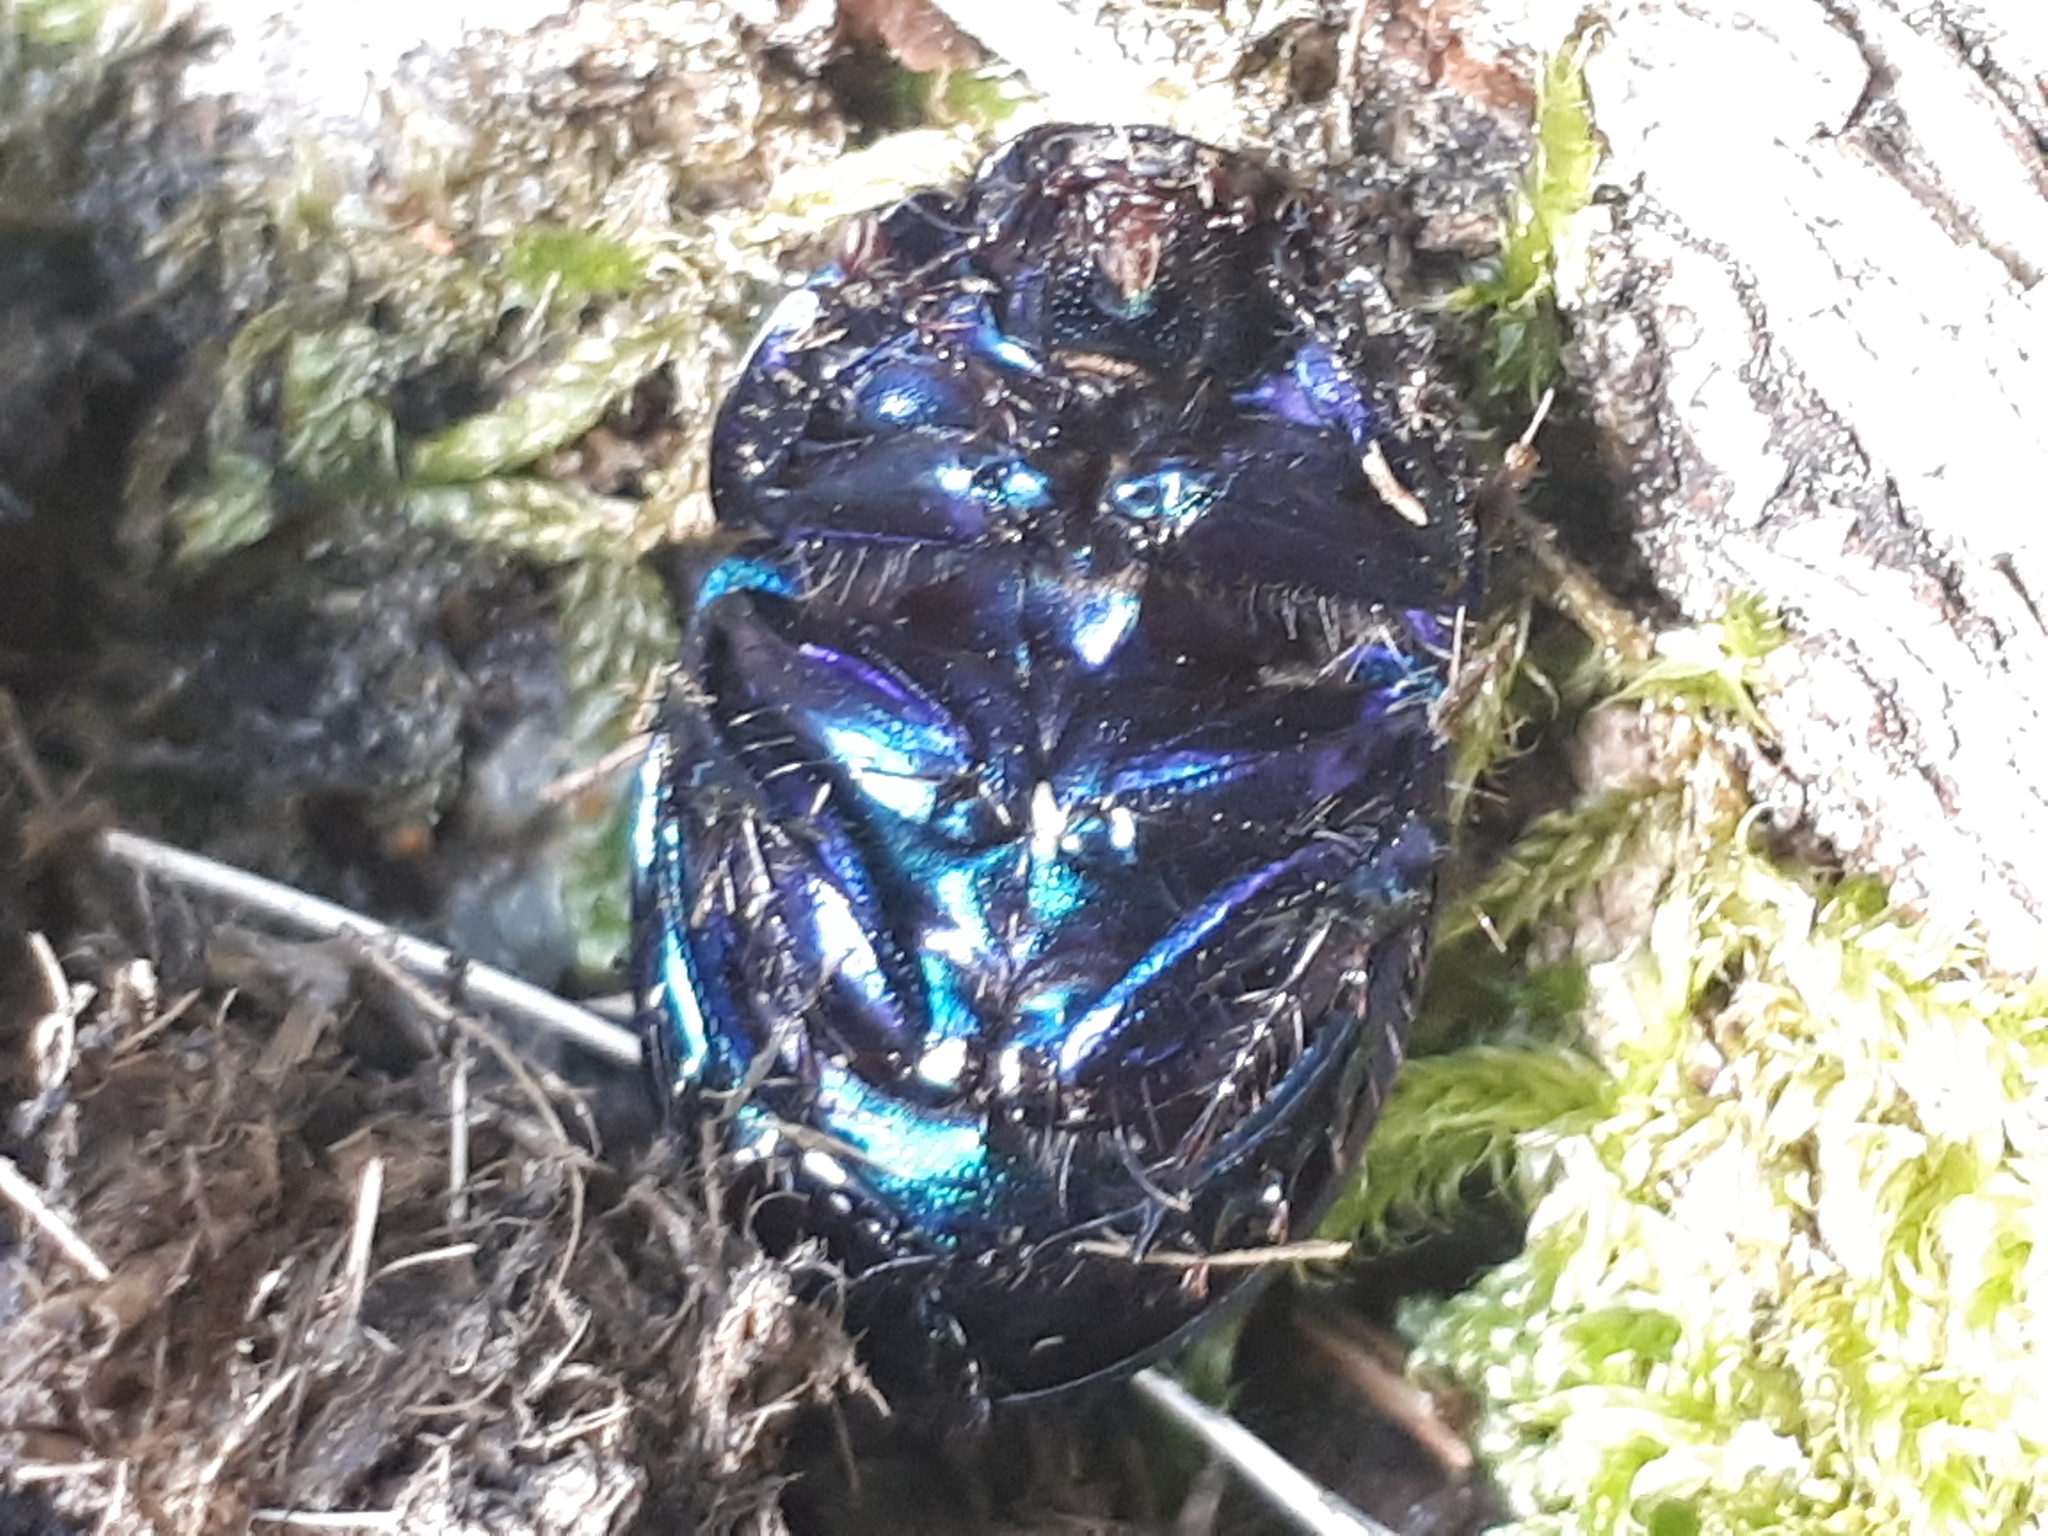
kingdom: Animalia
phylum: Arthropoda
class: Insecta
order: Coleoptera
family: Geotrupidae
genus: Anoplotrupes
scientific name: Anoplotrupes stercorosus
